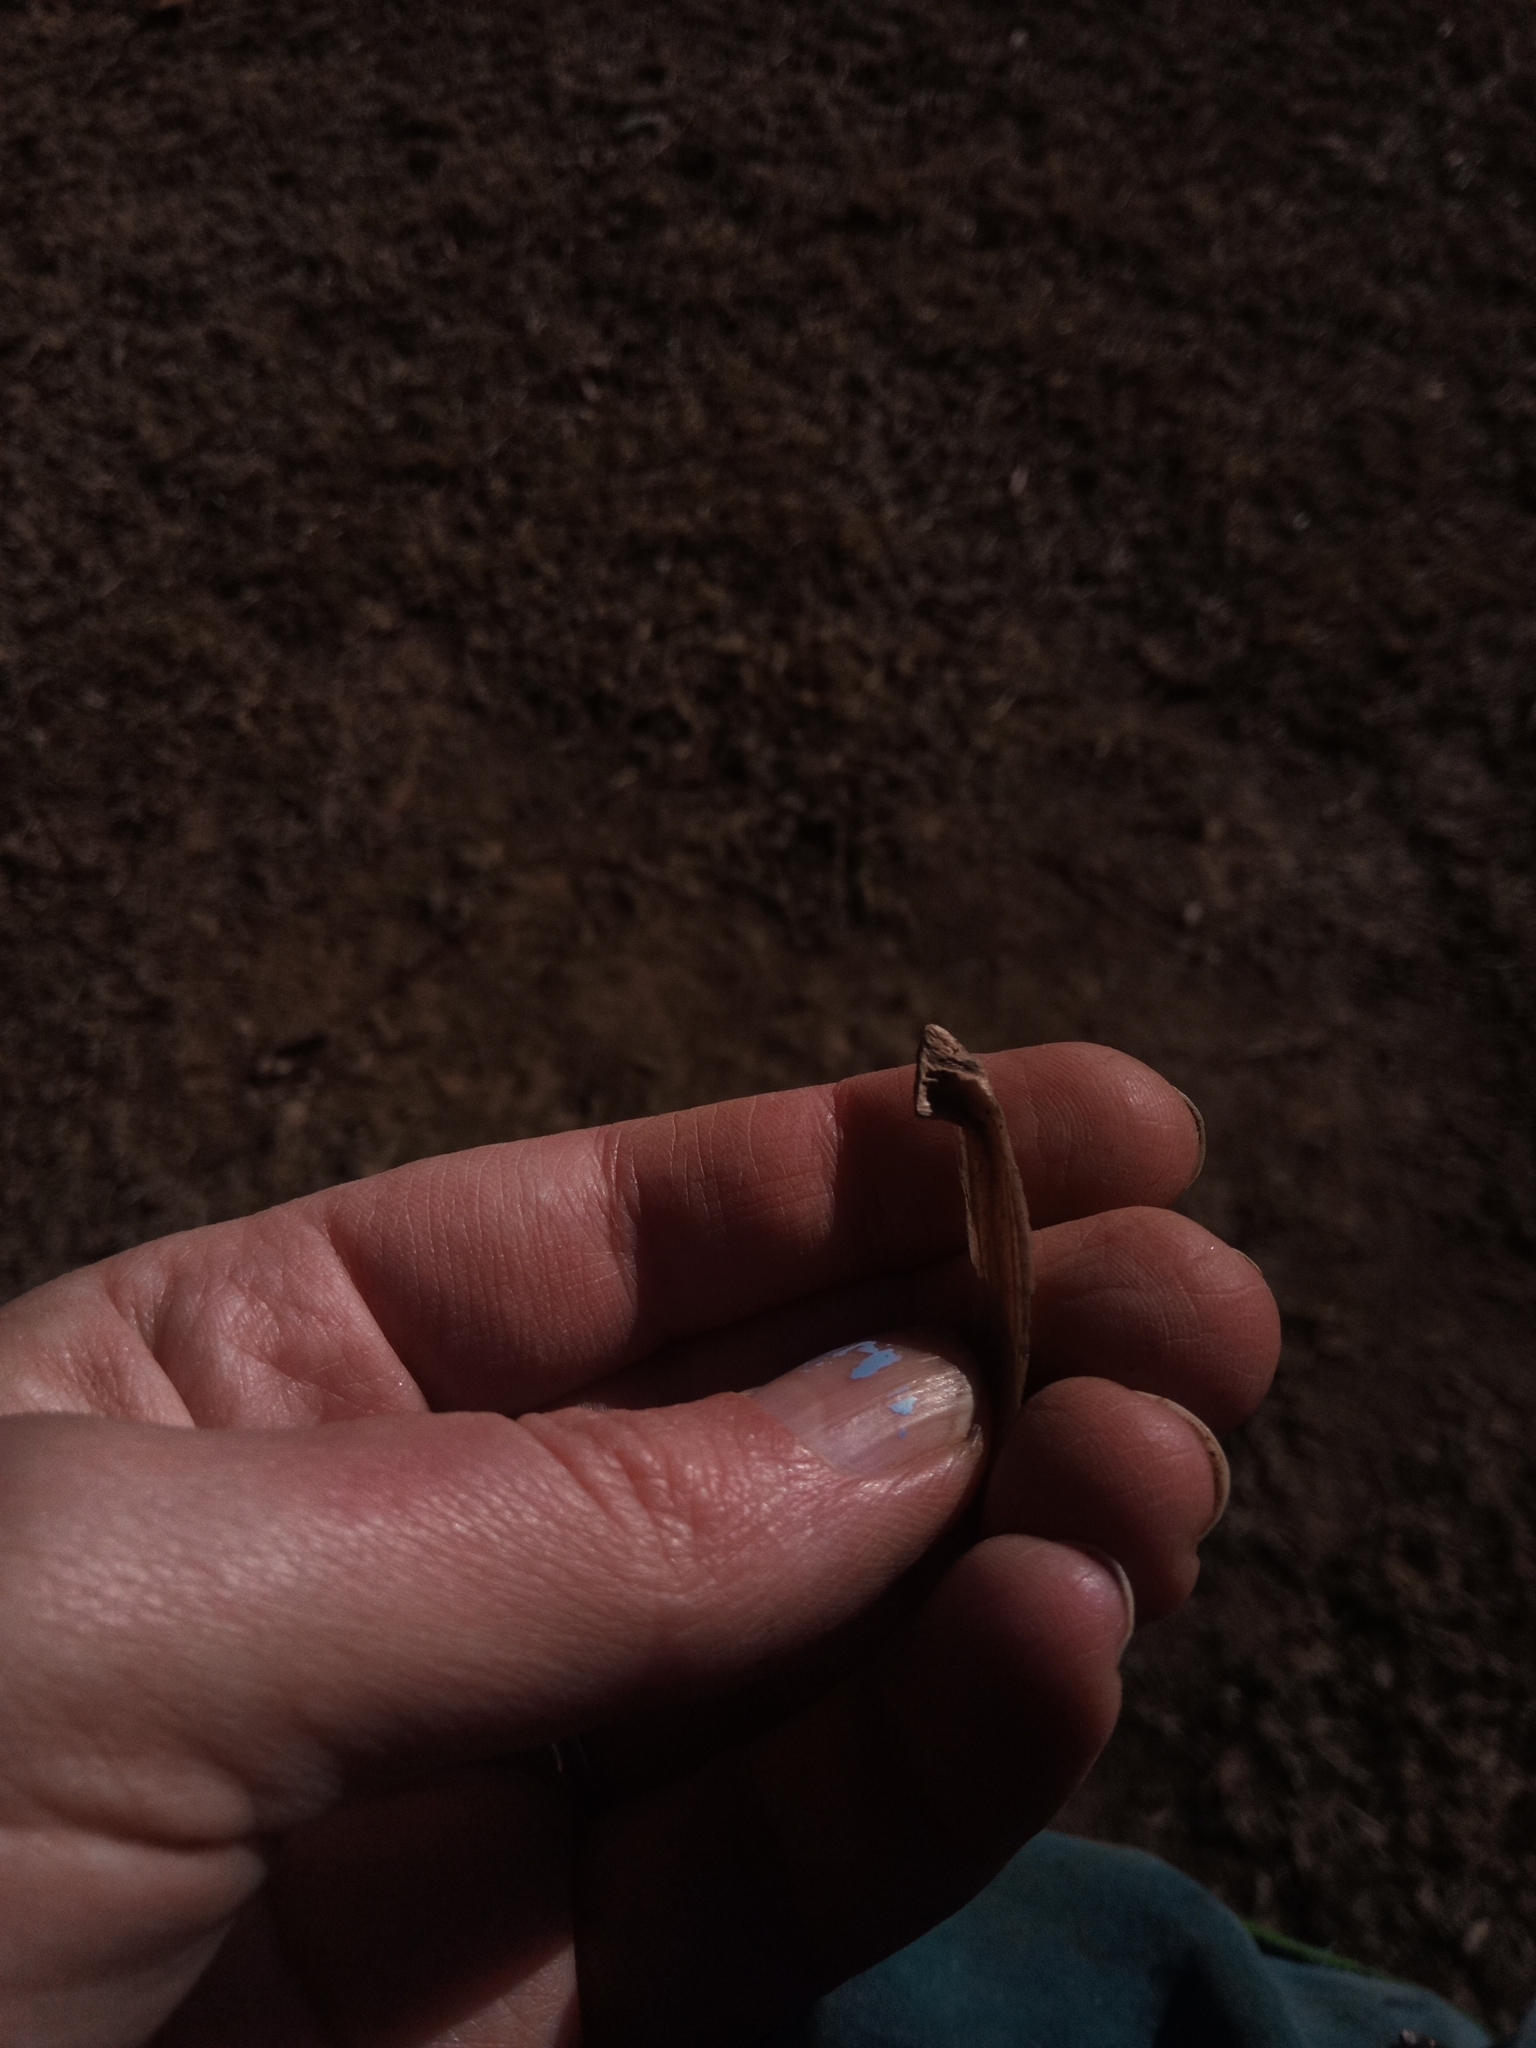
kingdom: Plantae
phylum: Tracheophyta
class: Magnoliopsida
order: Magnoliales
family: Magnoliaceae
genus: Liriodendron
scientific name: Liriodendron tulipifera
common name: Tulip tree
